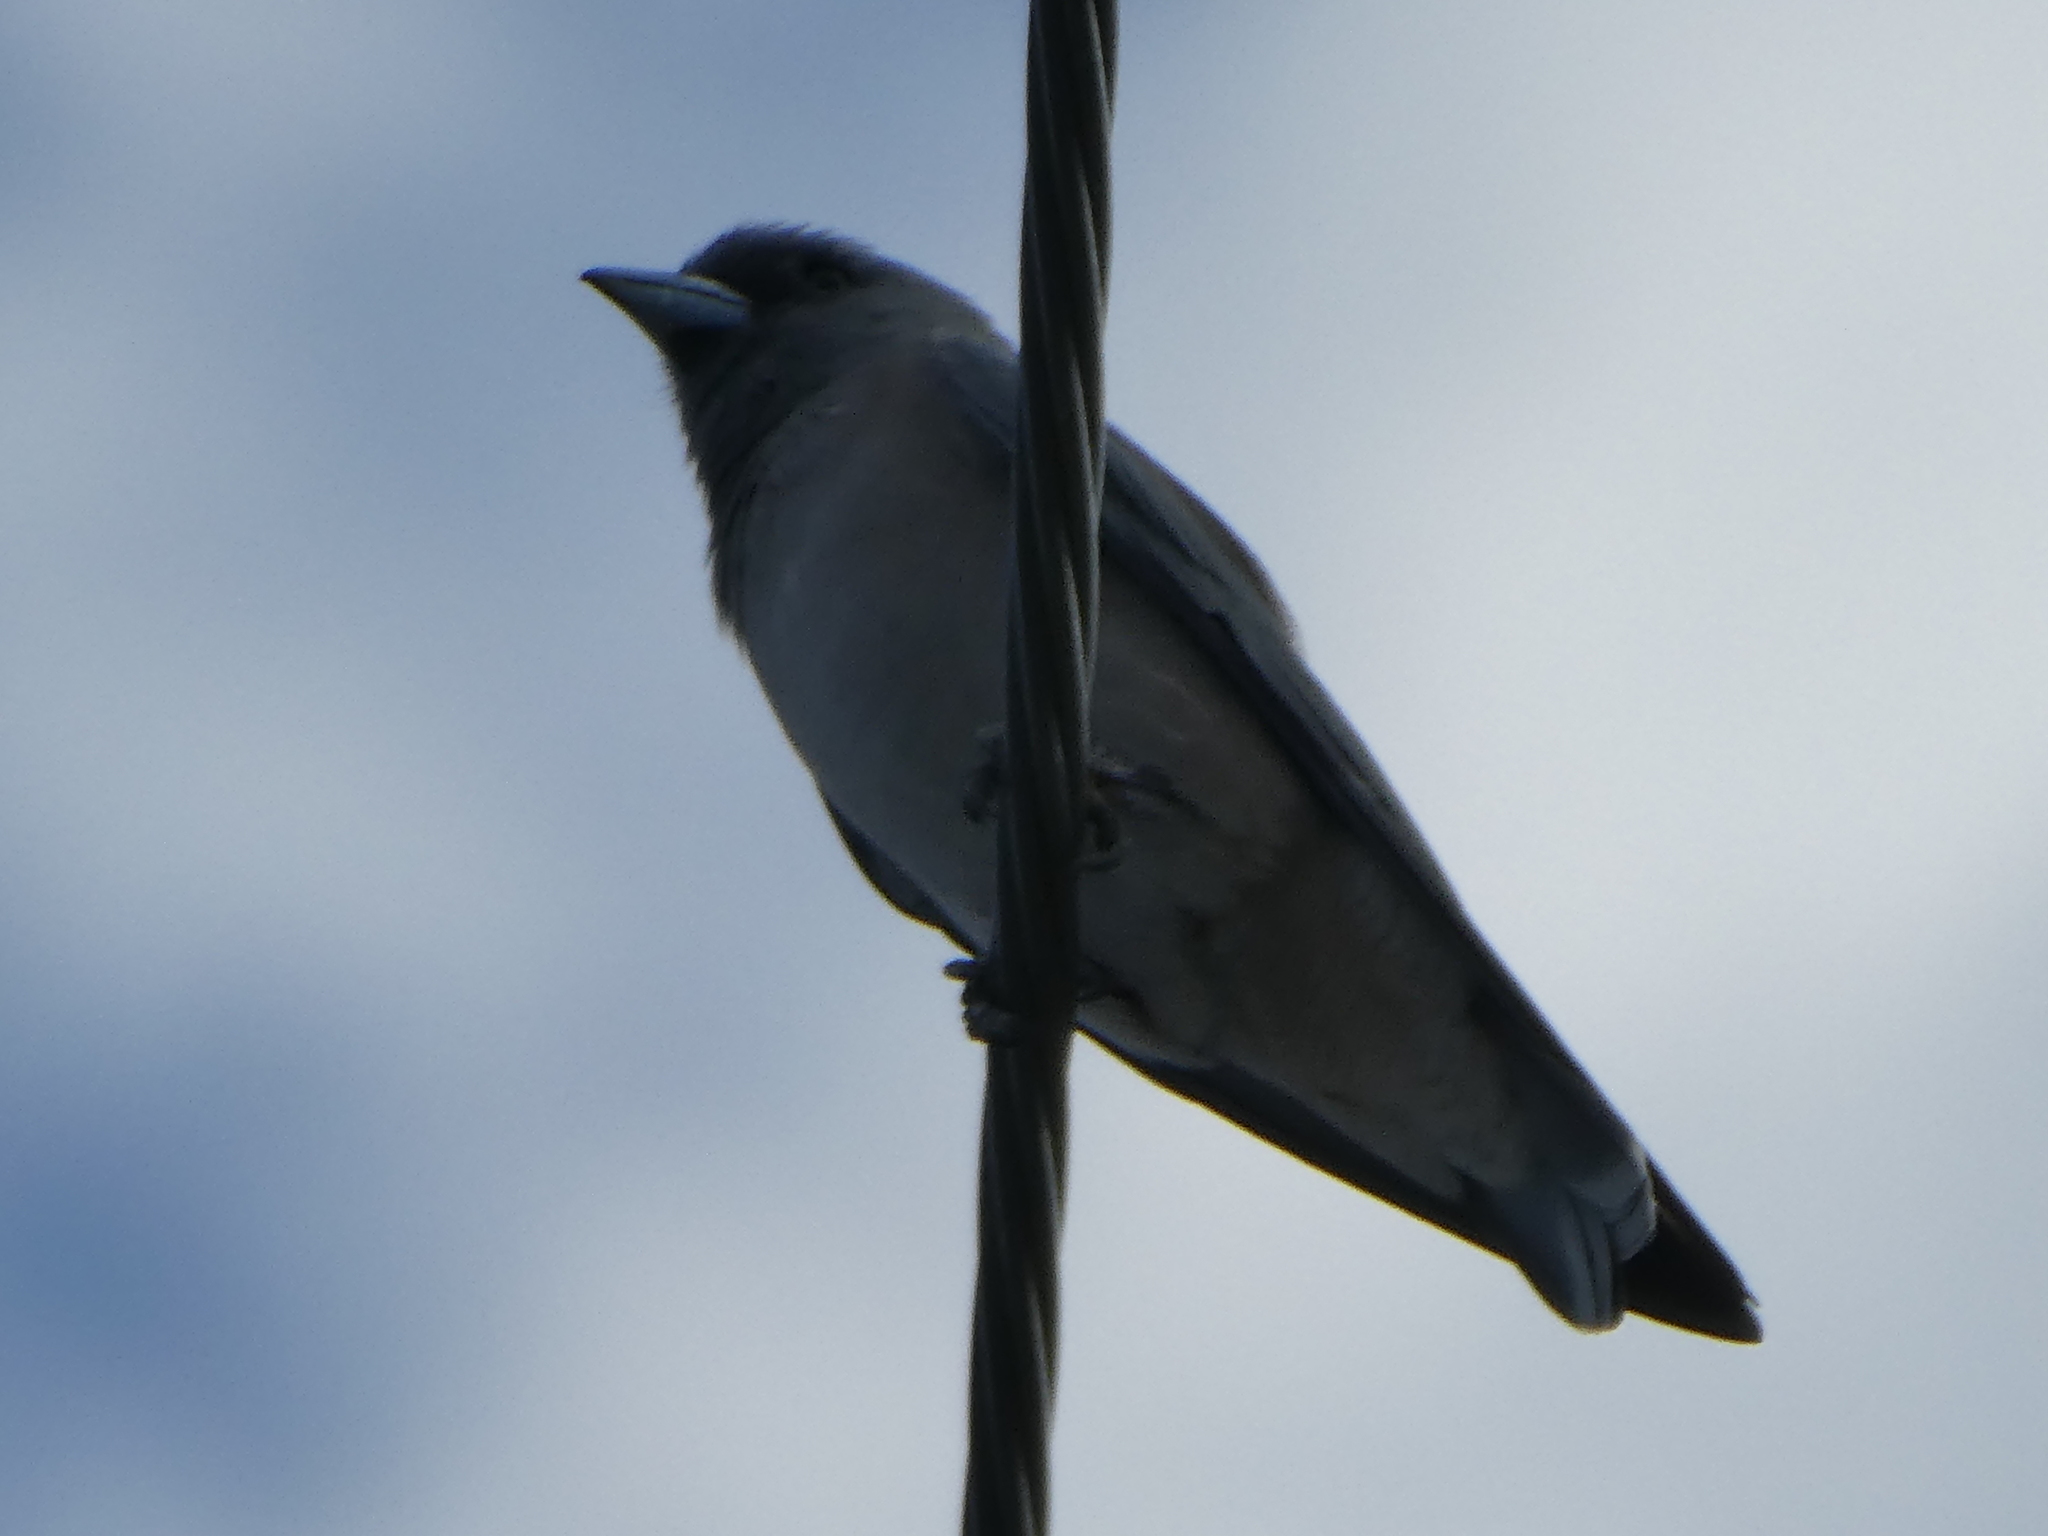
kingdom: Animalia
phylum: Chordata
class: Aves
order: Passeriformes
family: Artamidae
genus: Artamus
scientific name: Artamus fuscus
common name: Ashy woodswallow
